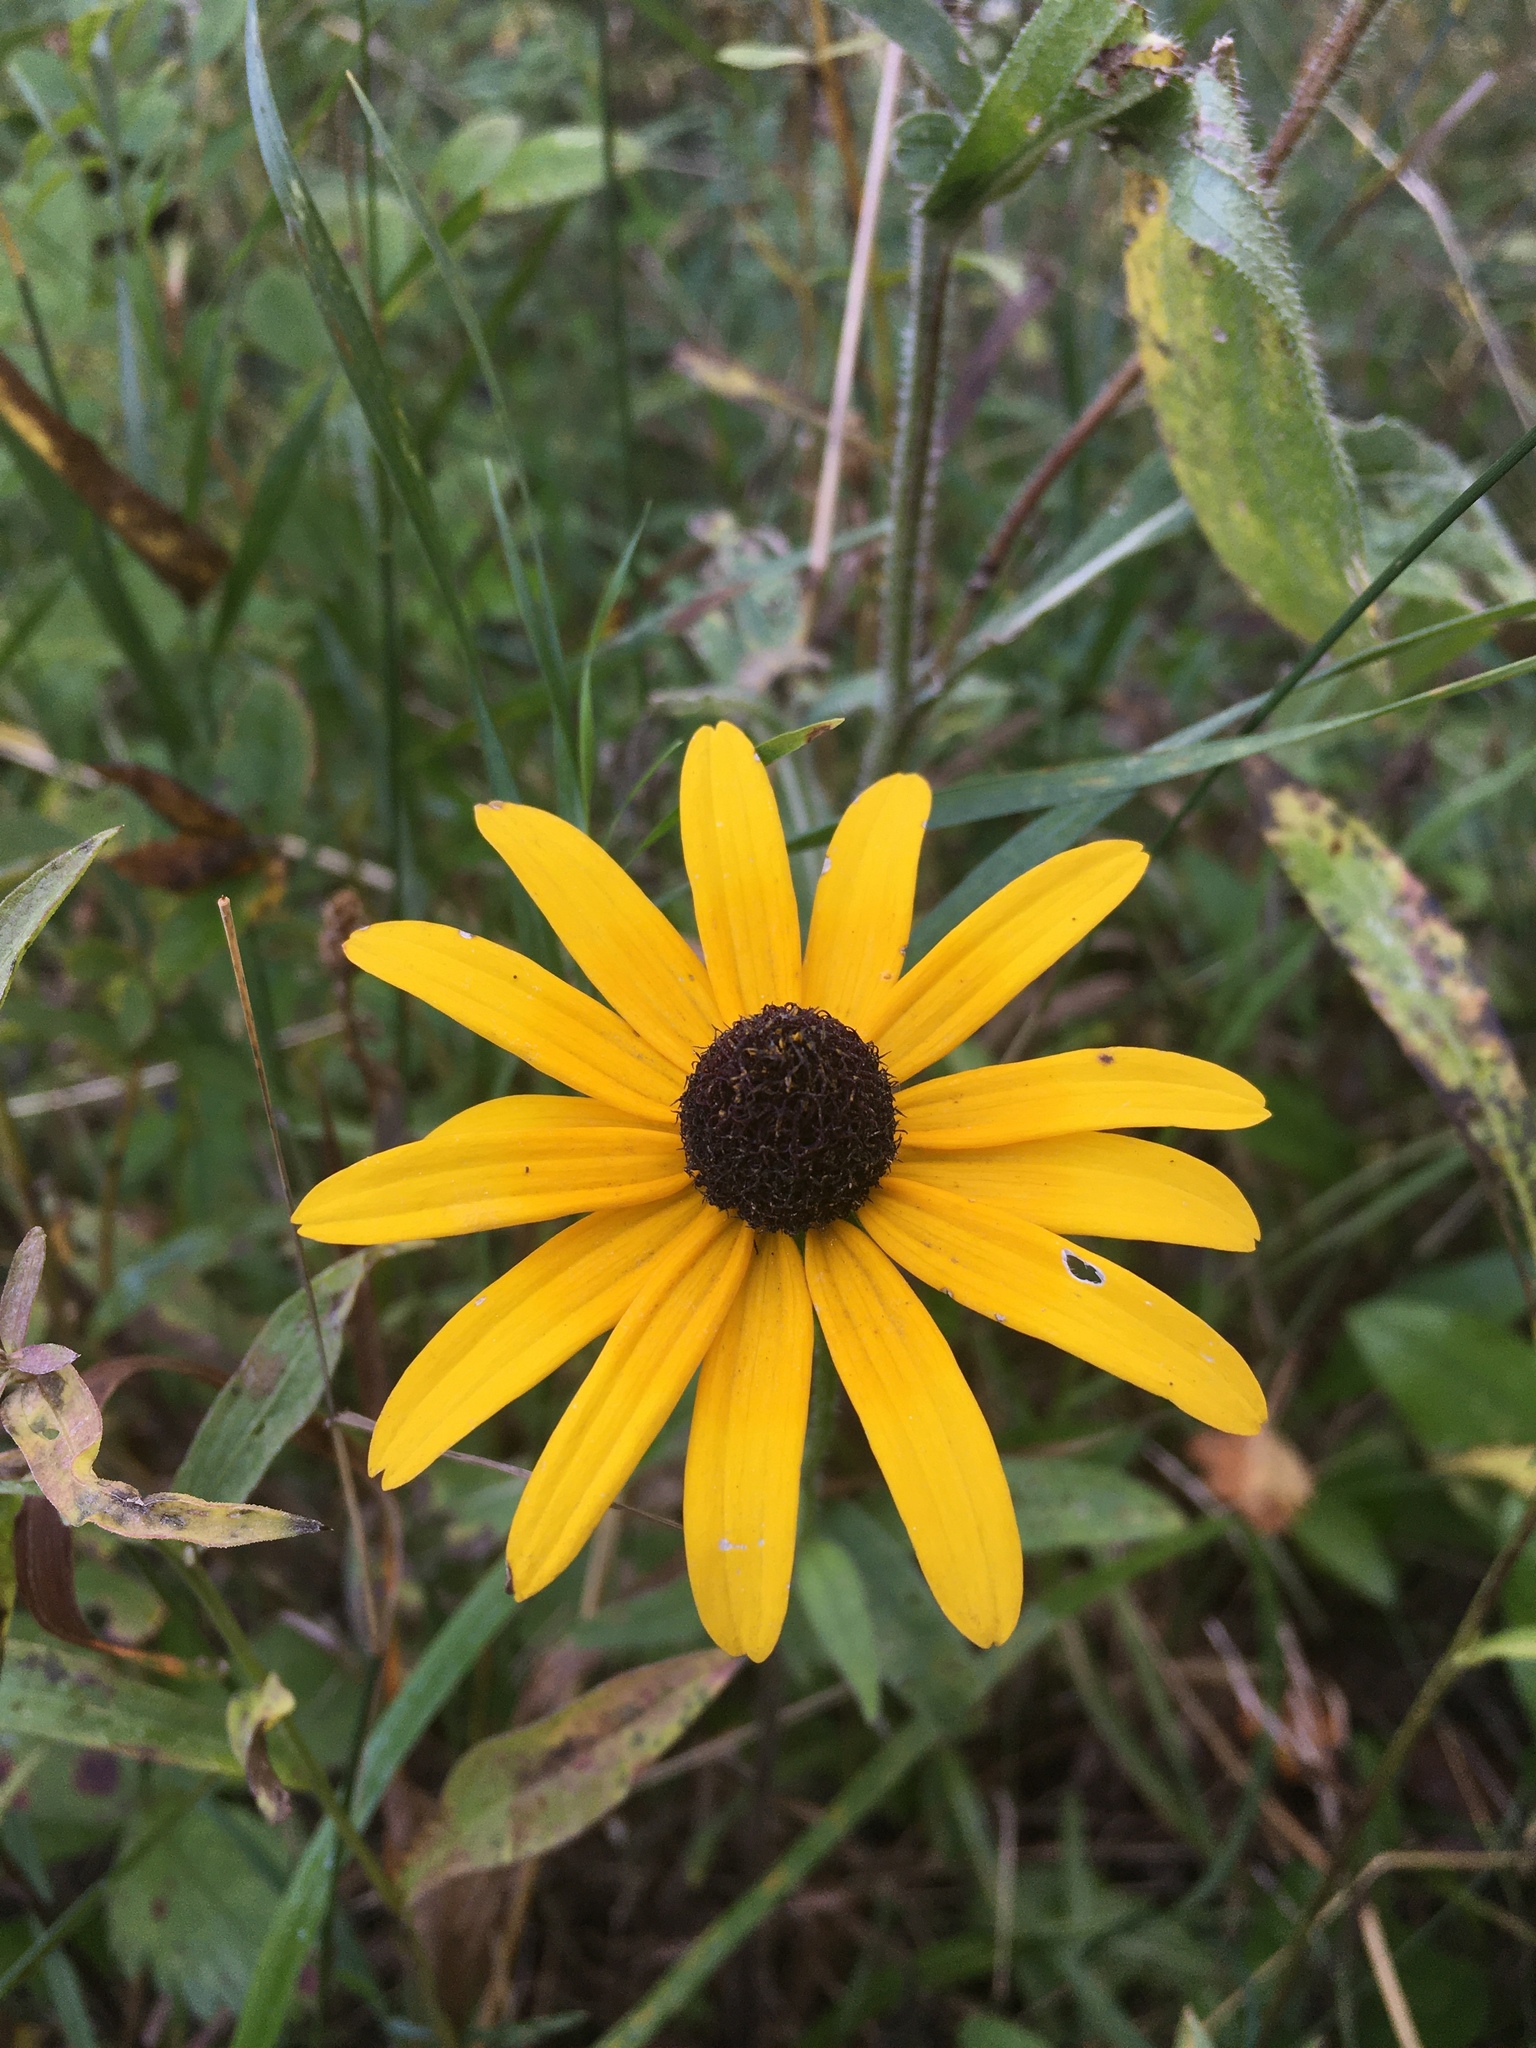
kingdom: Plantae
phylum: Tracheophyta
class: Magnoliopsida
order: Asterales
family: Asteraceae
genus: Rudbeckia
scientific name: Rudbeckia hirta
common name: Black-eyed-susan
